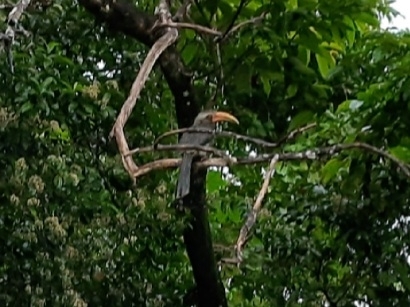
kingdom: Animalia
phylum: Chordata
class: Aves
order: Bucerotiformes
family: Bucerotidae
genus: Ocyceros
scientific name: Ocyceros griseus
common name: Malabar grey hornbill
